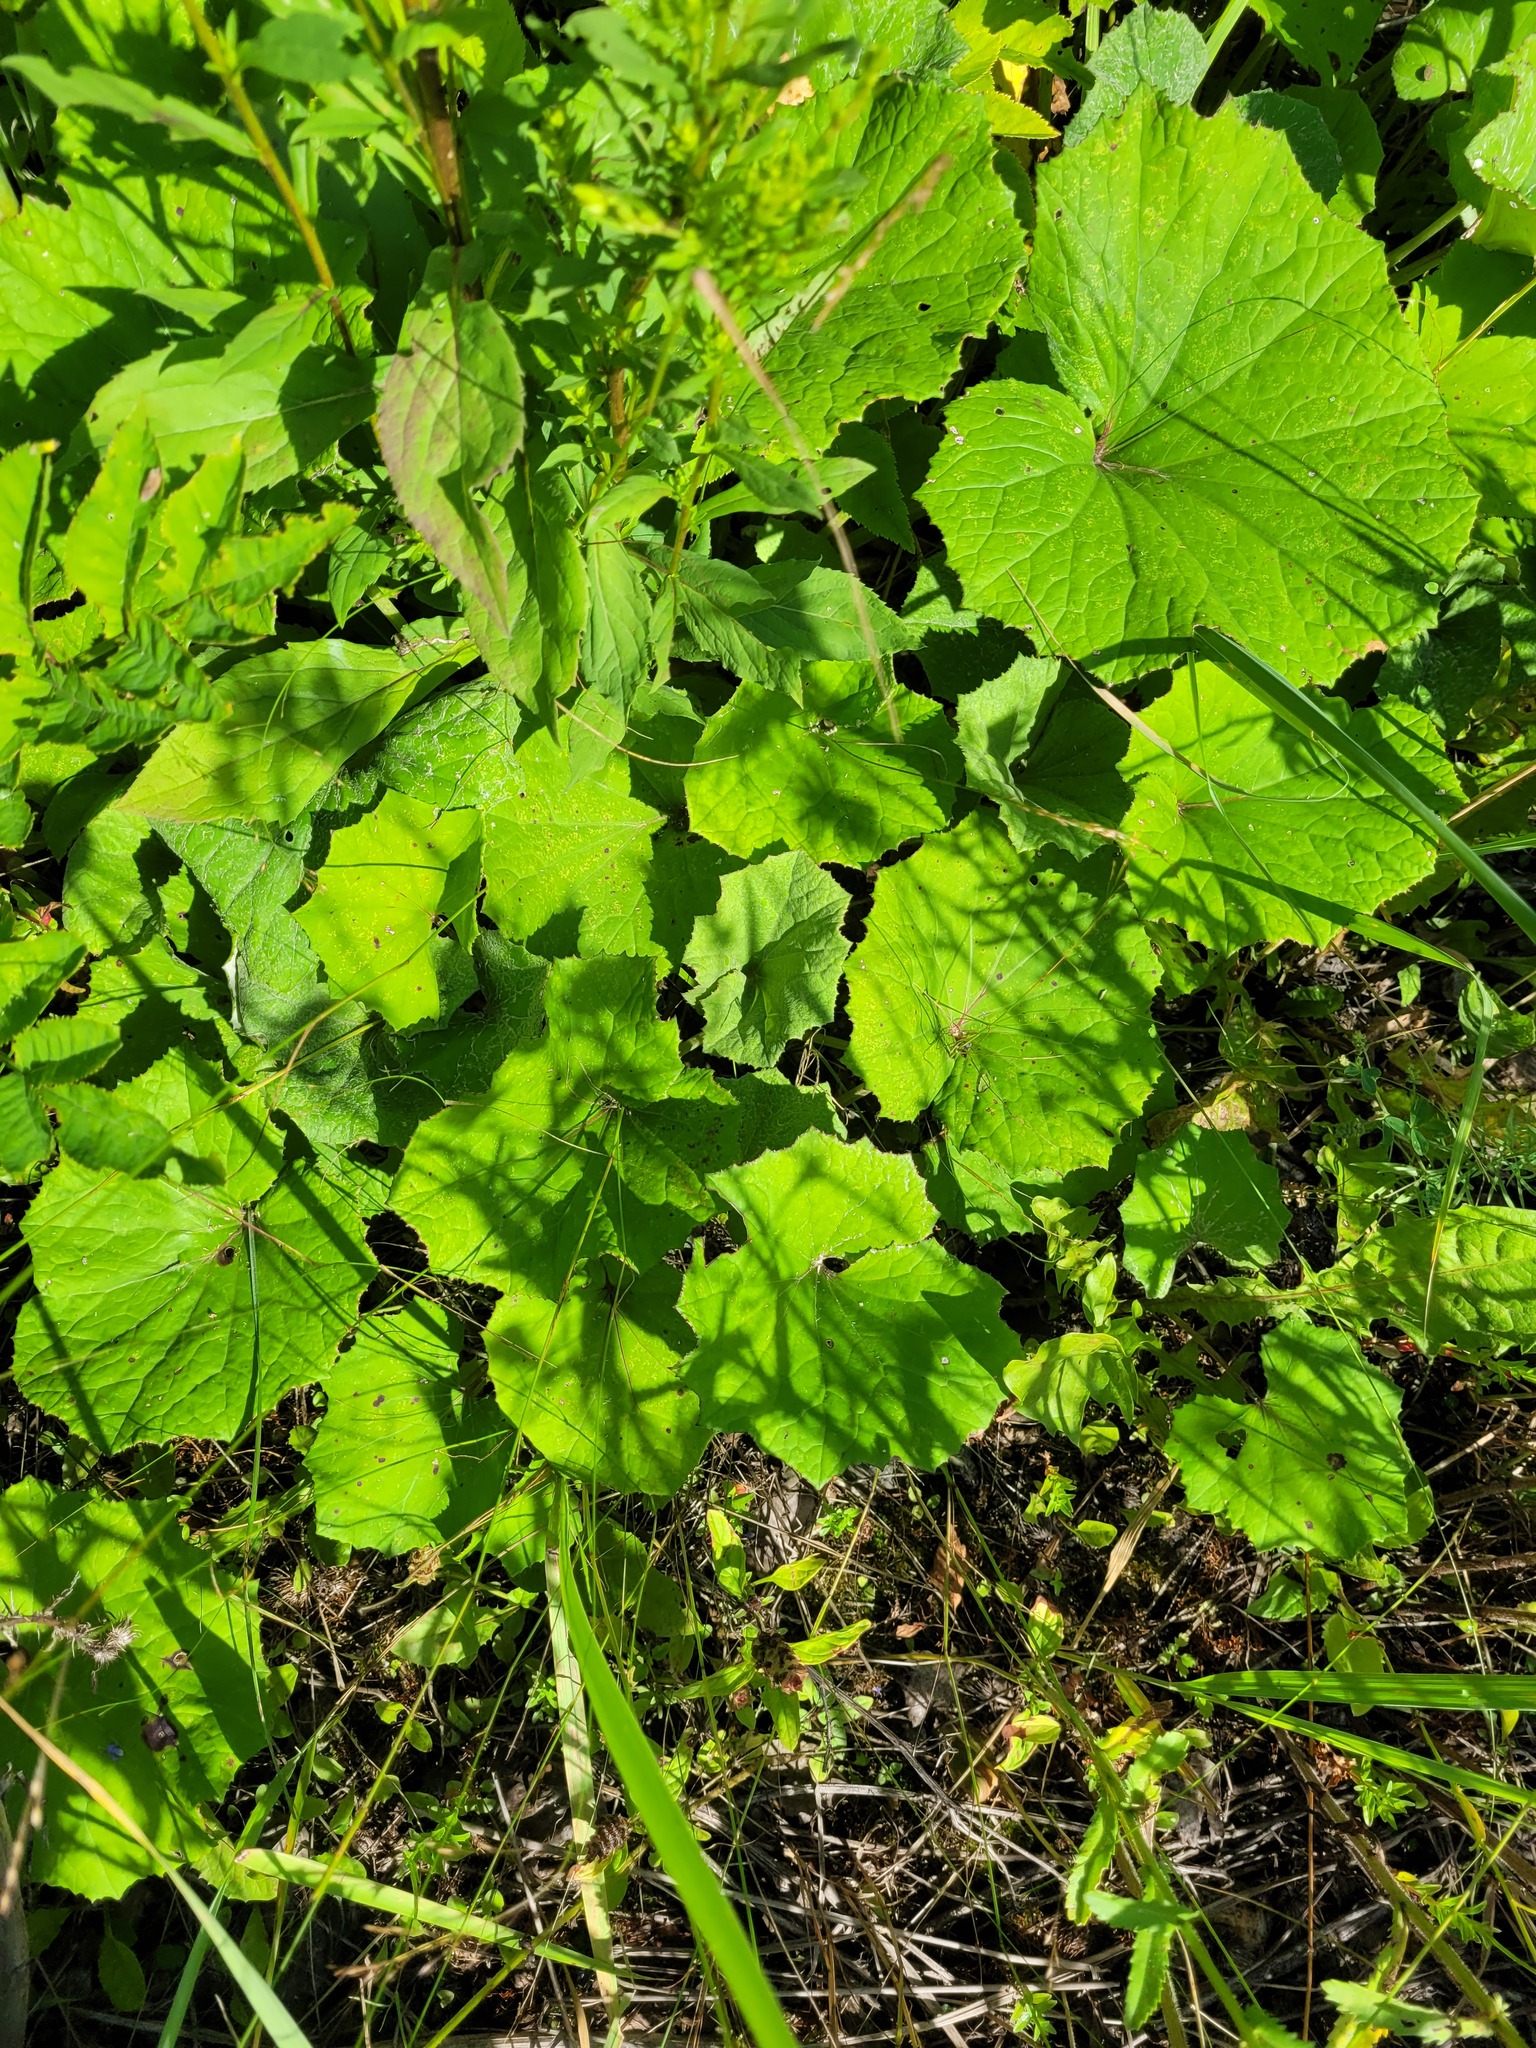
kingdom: Plantae
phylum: Tracheophyta
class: Magnoliopsida
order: Asterales
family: Asteraceae
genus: Tussilago
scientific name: Tussilago farfara
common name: Coltsfoot
